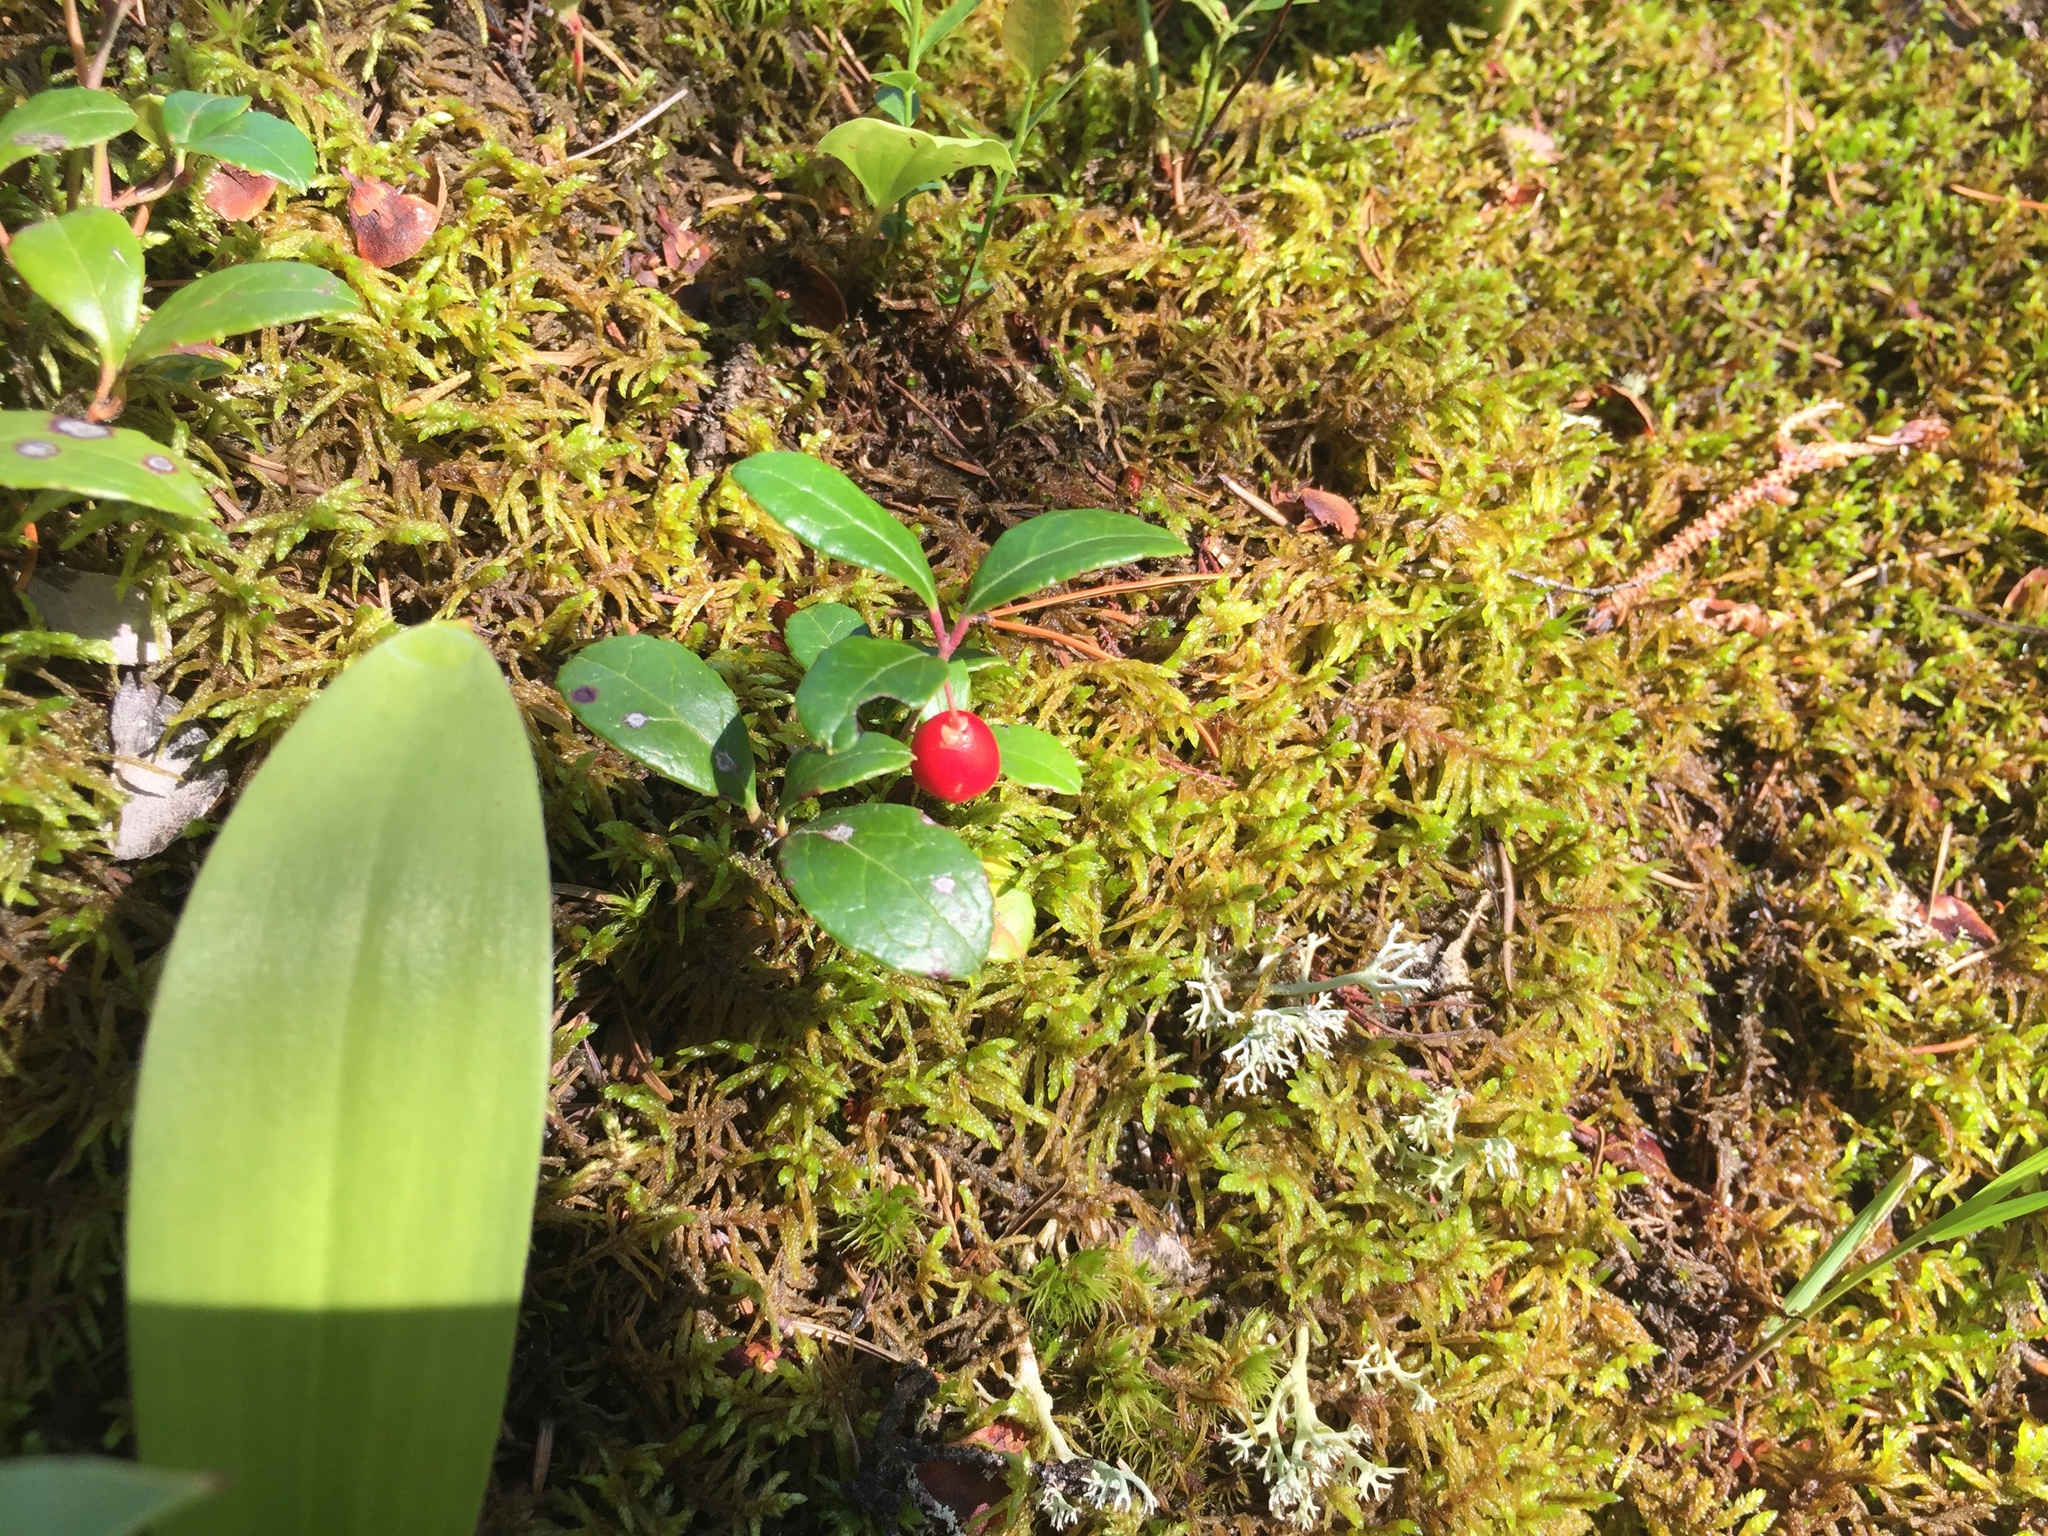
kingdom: Plantae
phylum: Tracheophyta
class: Magnoliopsida
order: Ericales
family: Ericaceae
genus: Gaultheria
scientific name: Gaultheria procumbens
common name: Checkerberry
